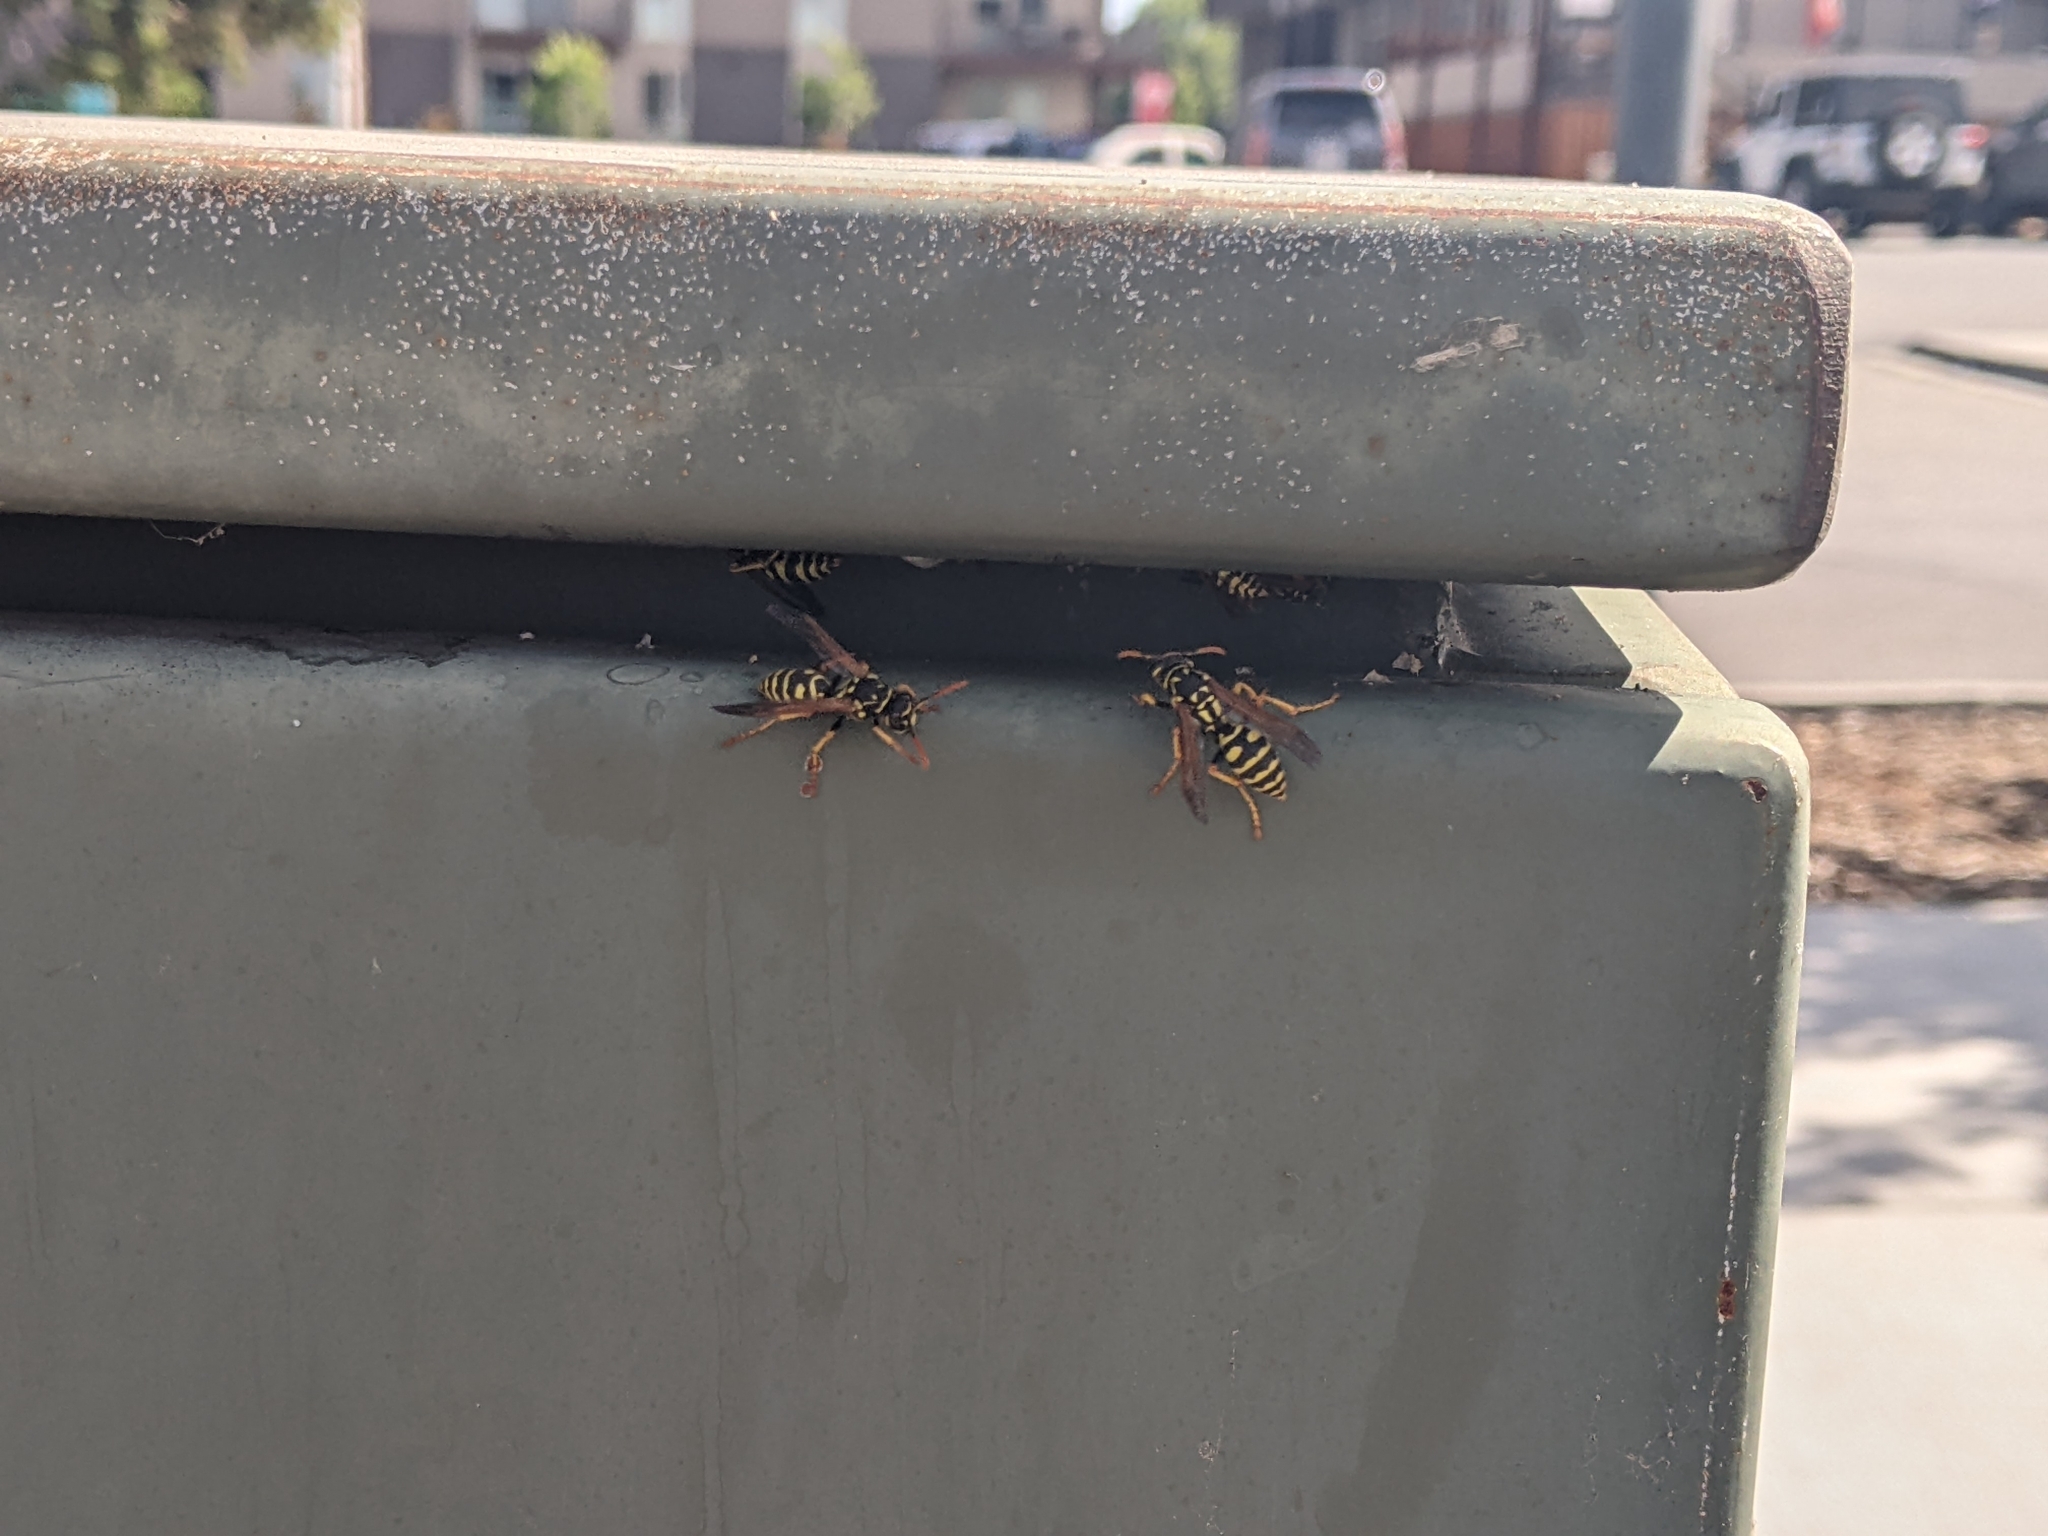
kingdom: Animalia
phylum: Arthropoda
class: Insecta
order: Hymenoptera
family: Eumenidae
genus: Polistes
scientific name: Polistes dominula
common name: Paper wasp
